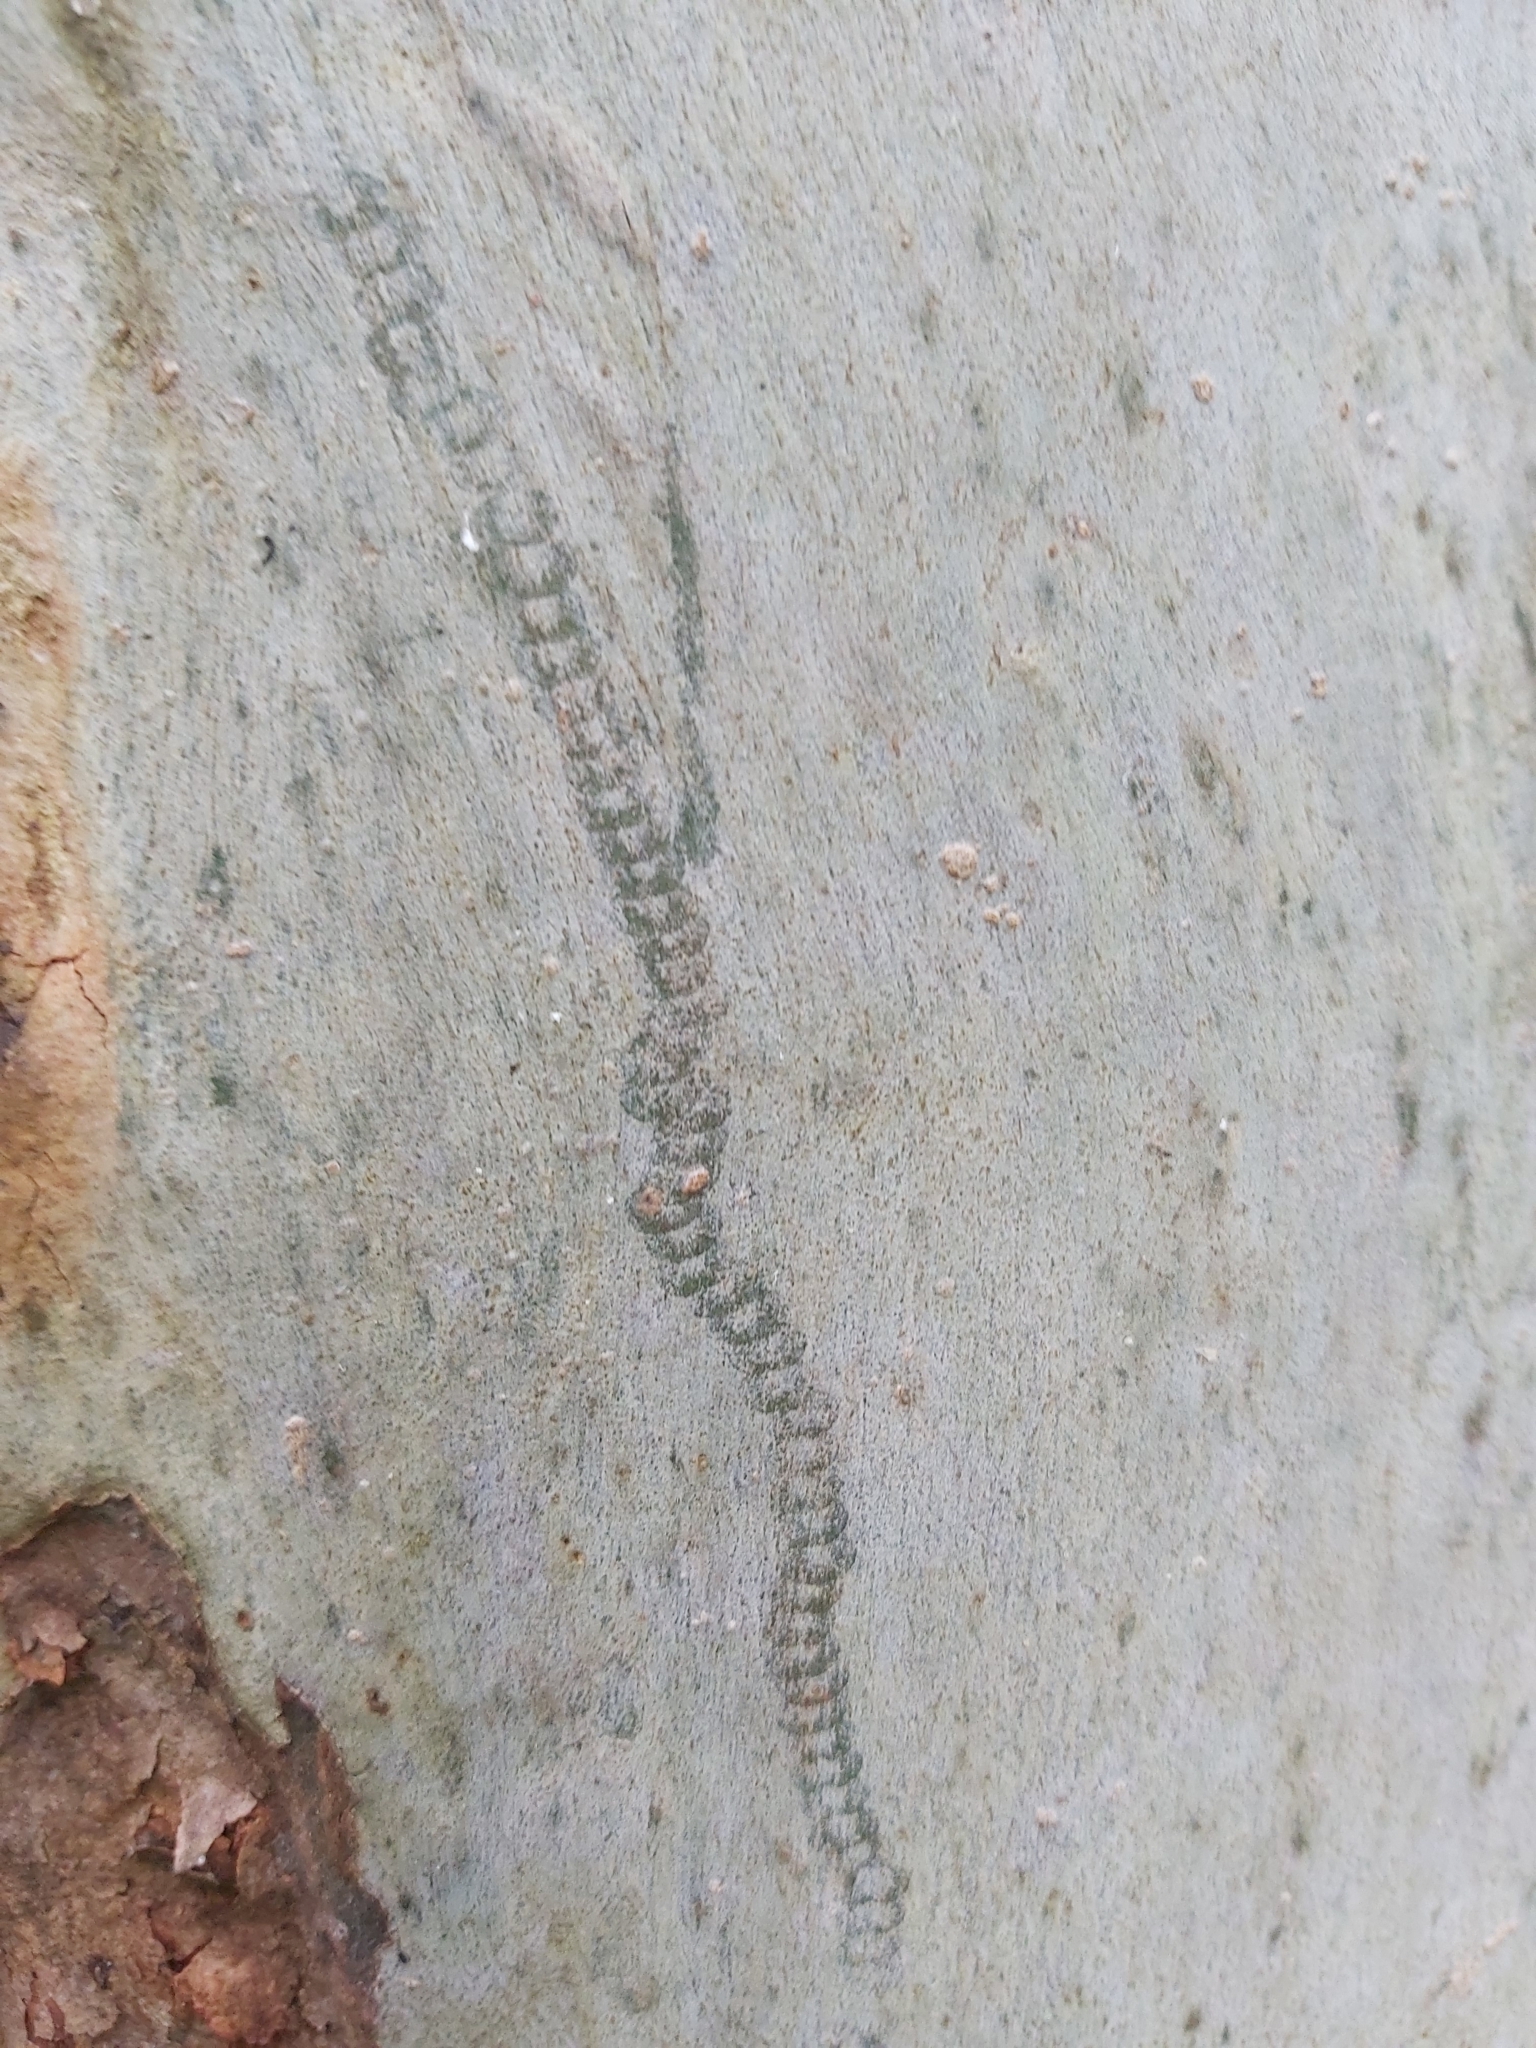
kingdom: Animalia
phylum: Mollusca
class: Gastropoda
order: Stylommatophora
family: Athoracophoridae
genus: Triboniophorus
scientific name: Triboniophorus graeffei
